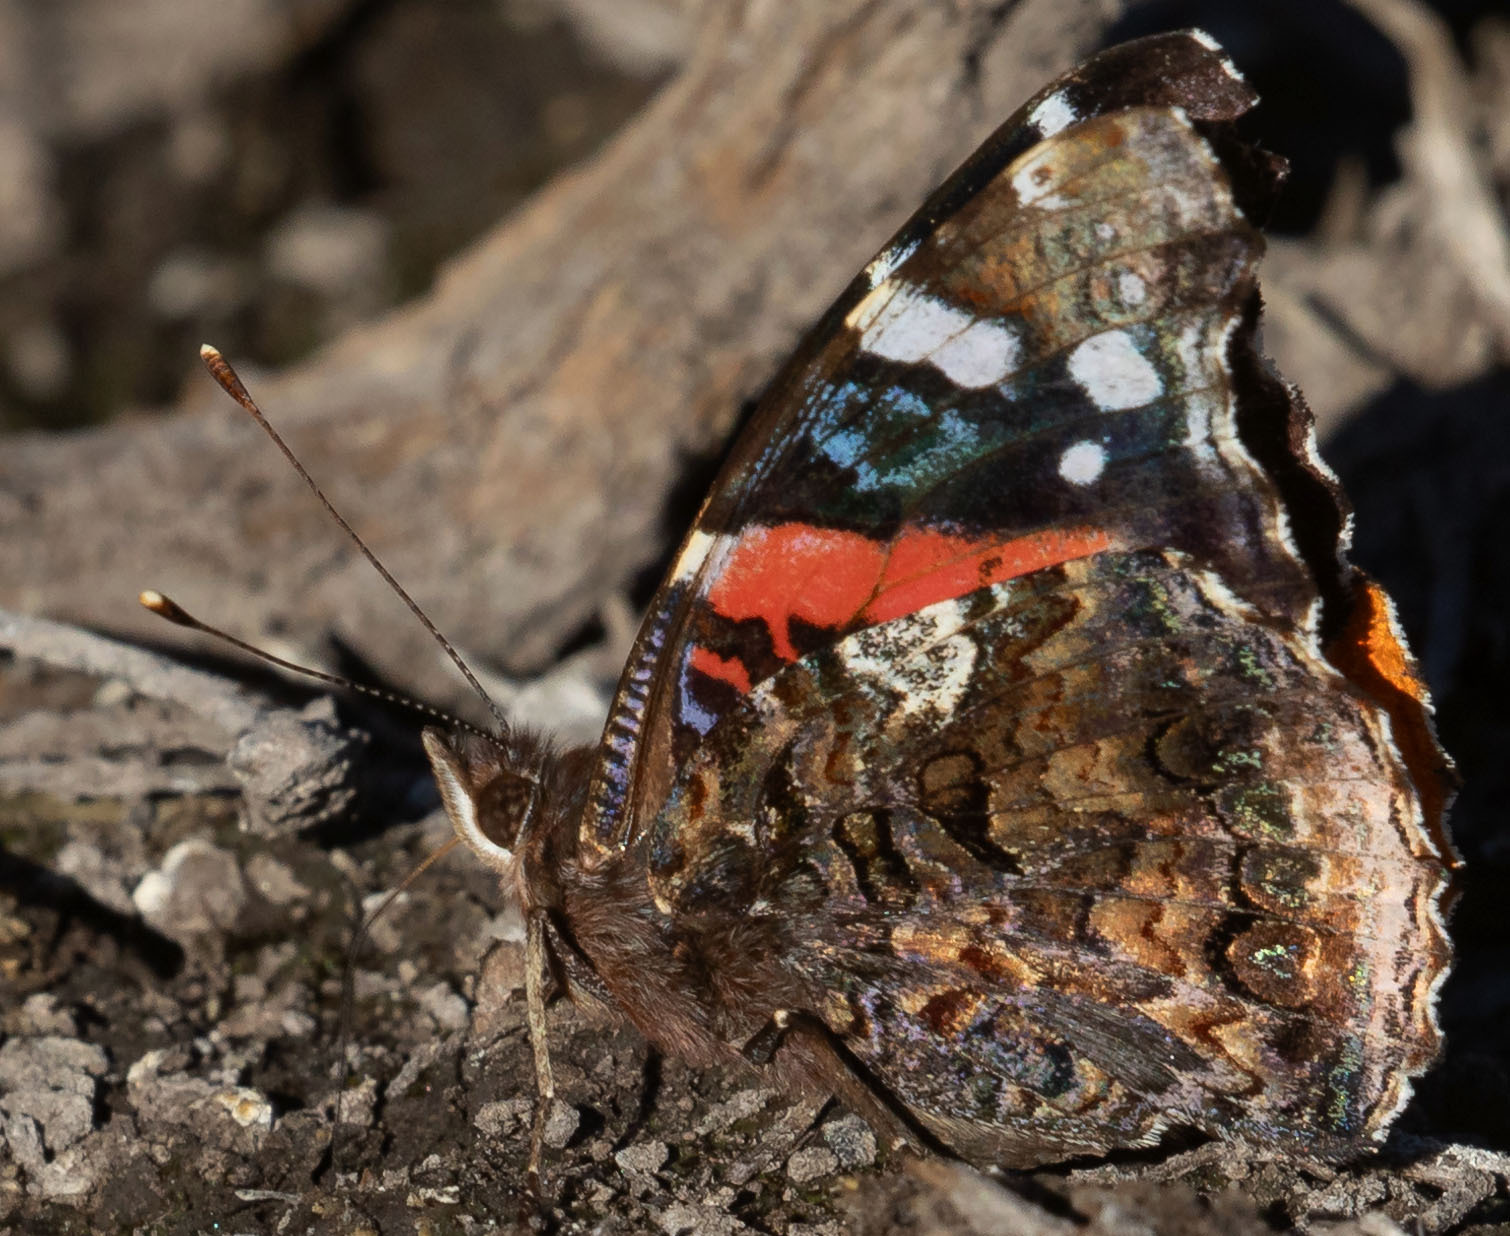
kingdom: Animalia
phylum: Arthropoda
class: Insecta
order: Lepidoptera
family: Nymphalidae
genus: Vanessa
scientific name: Vanessa atalanta
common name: Red admiral
